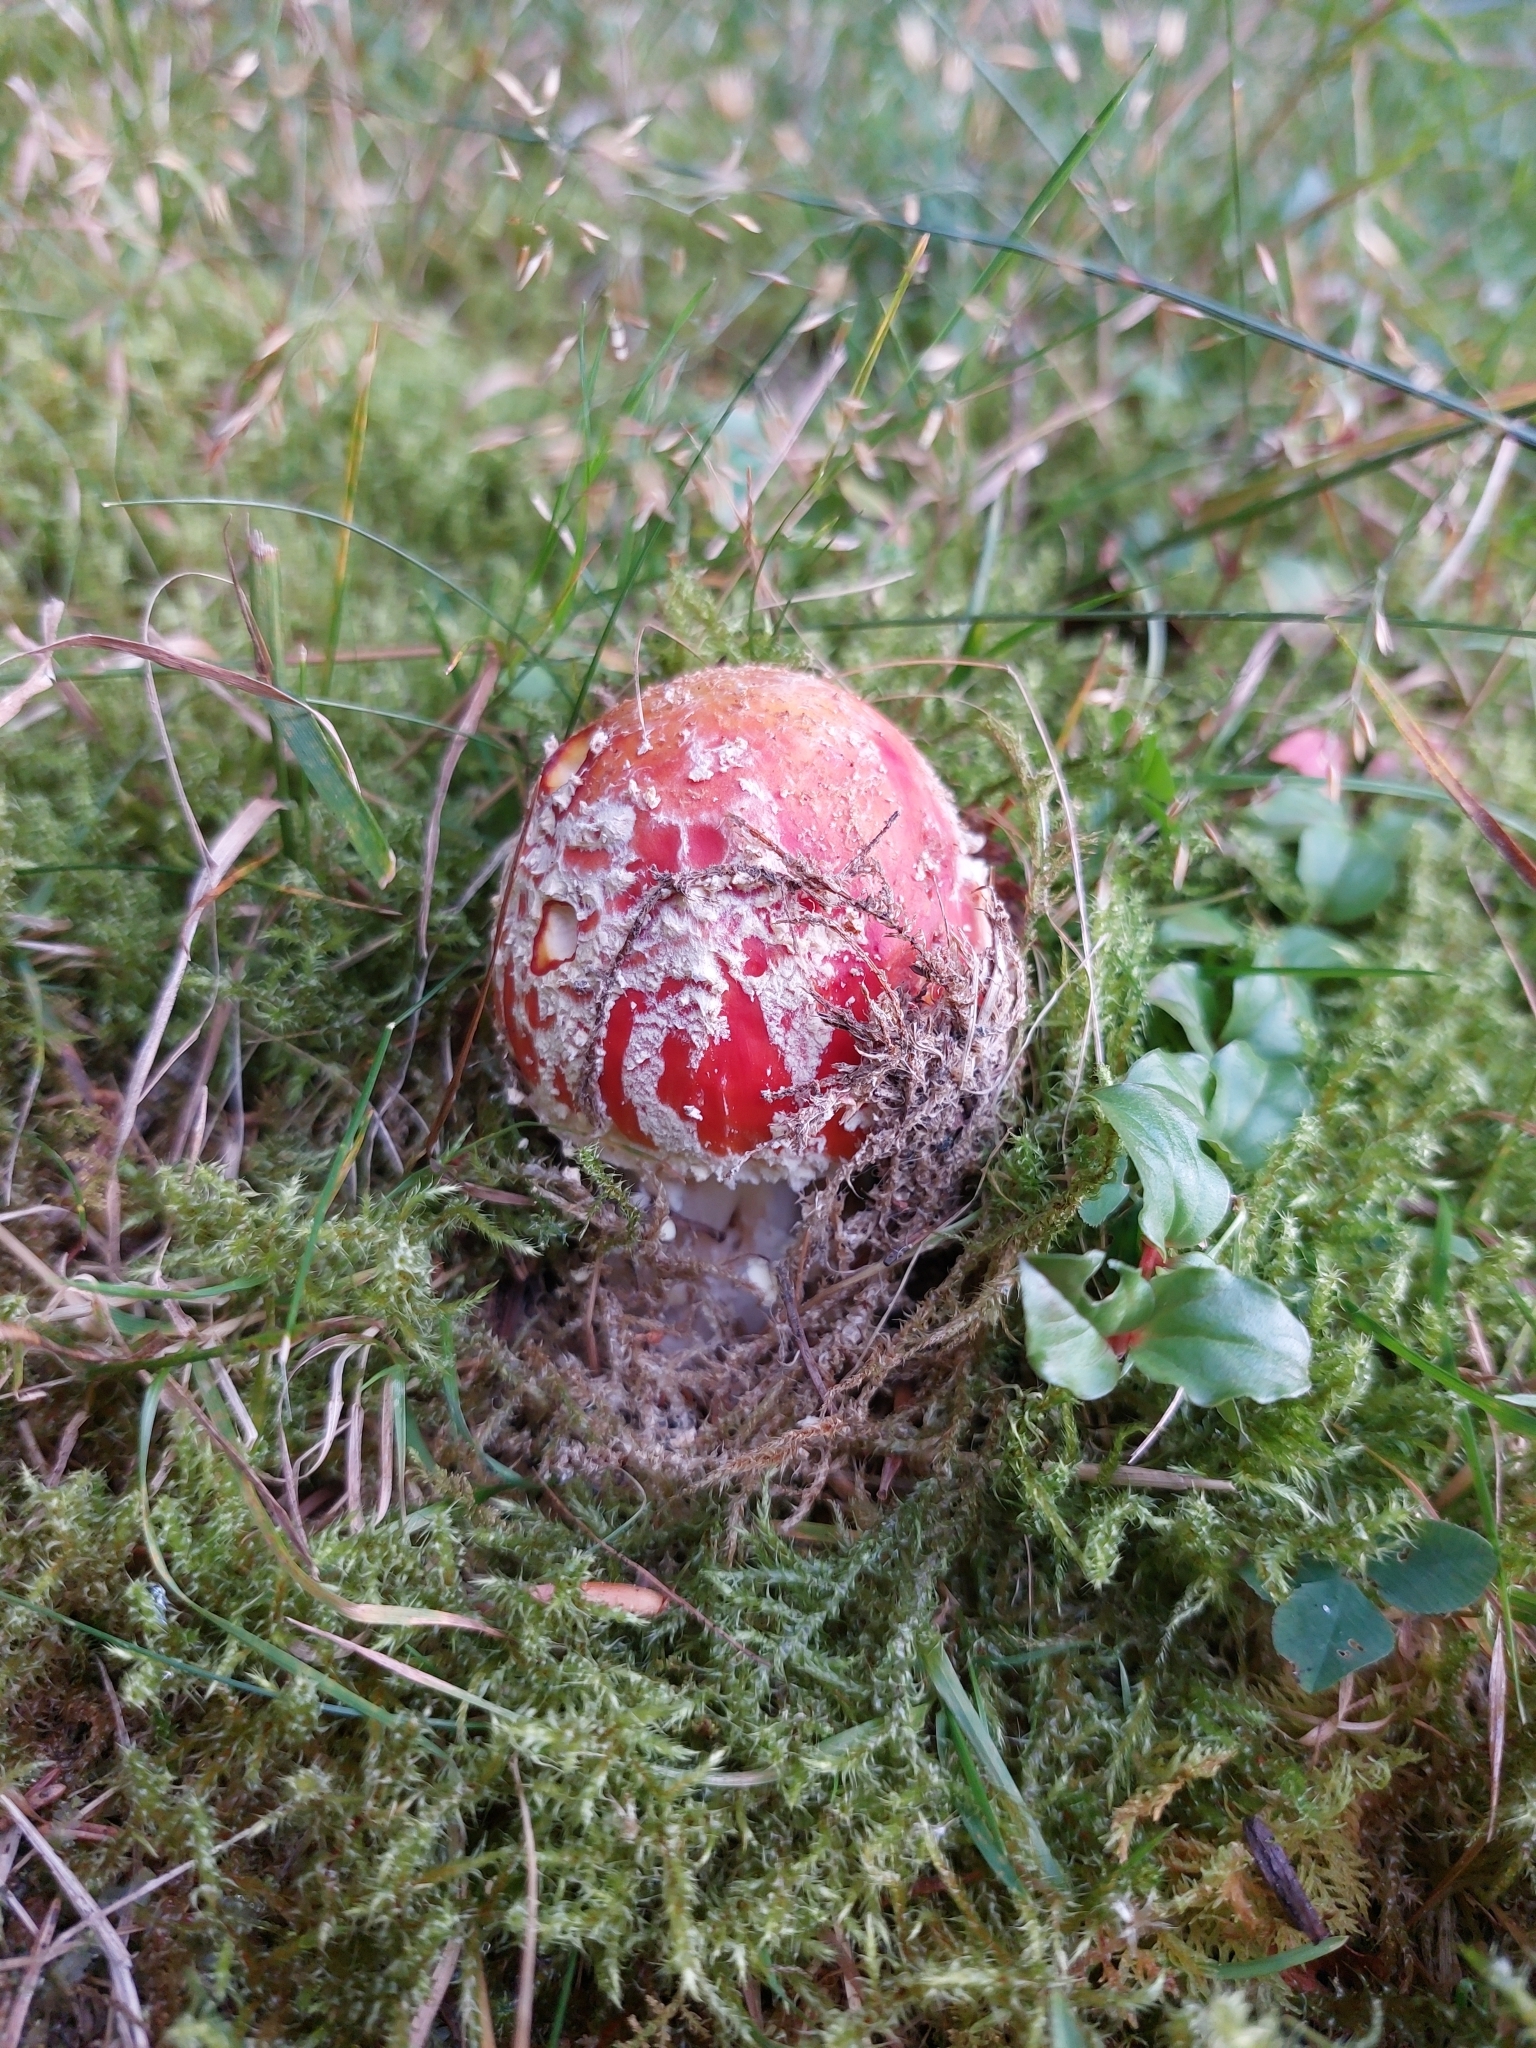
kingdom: Fungi
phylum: Basidiomycota
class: Agaricomycetes
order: Agaricales
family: Amanitaceae
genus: Amanita
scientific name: Amanita muscaria
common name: Fly agaric
